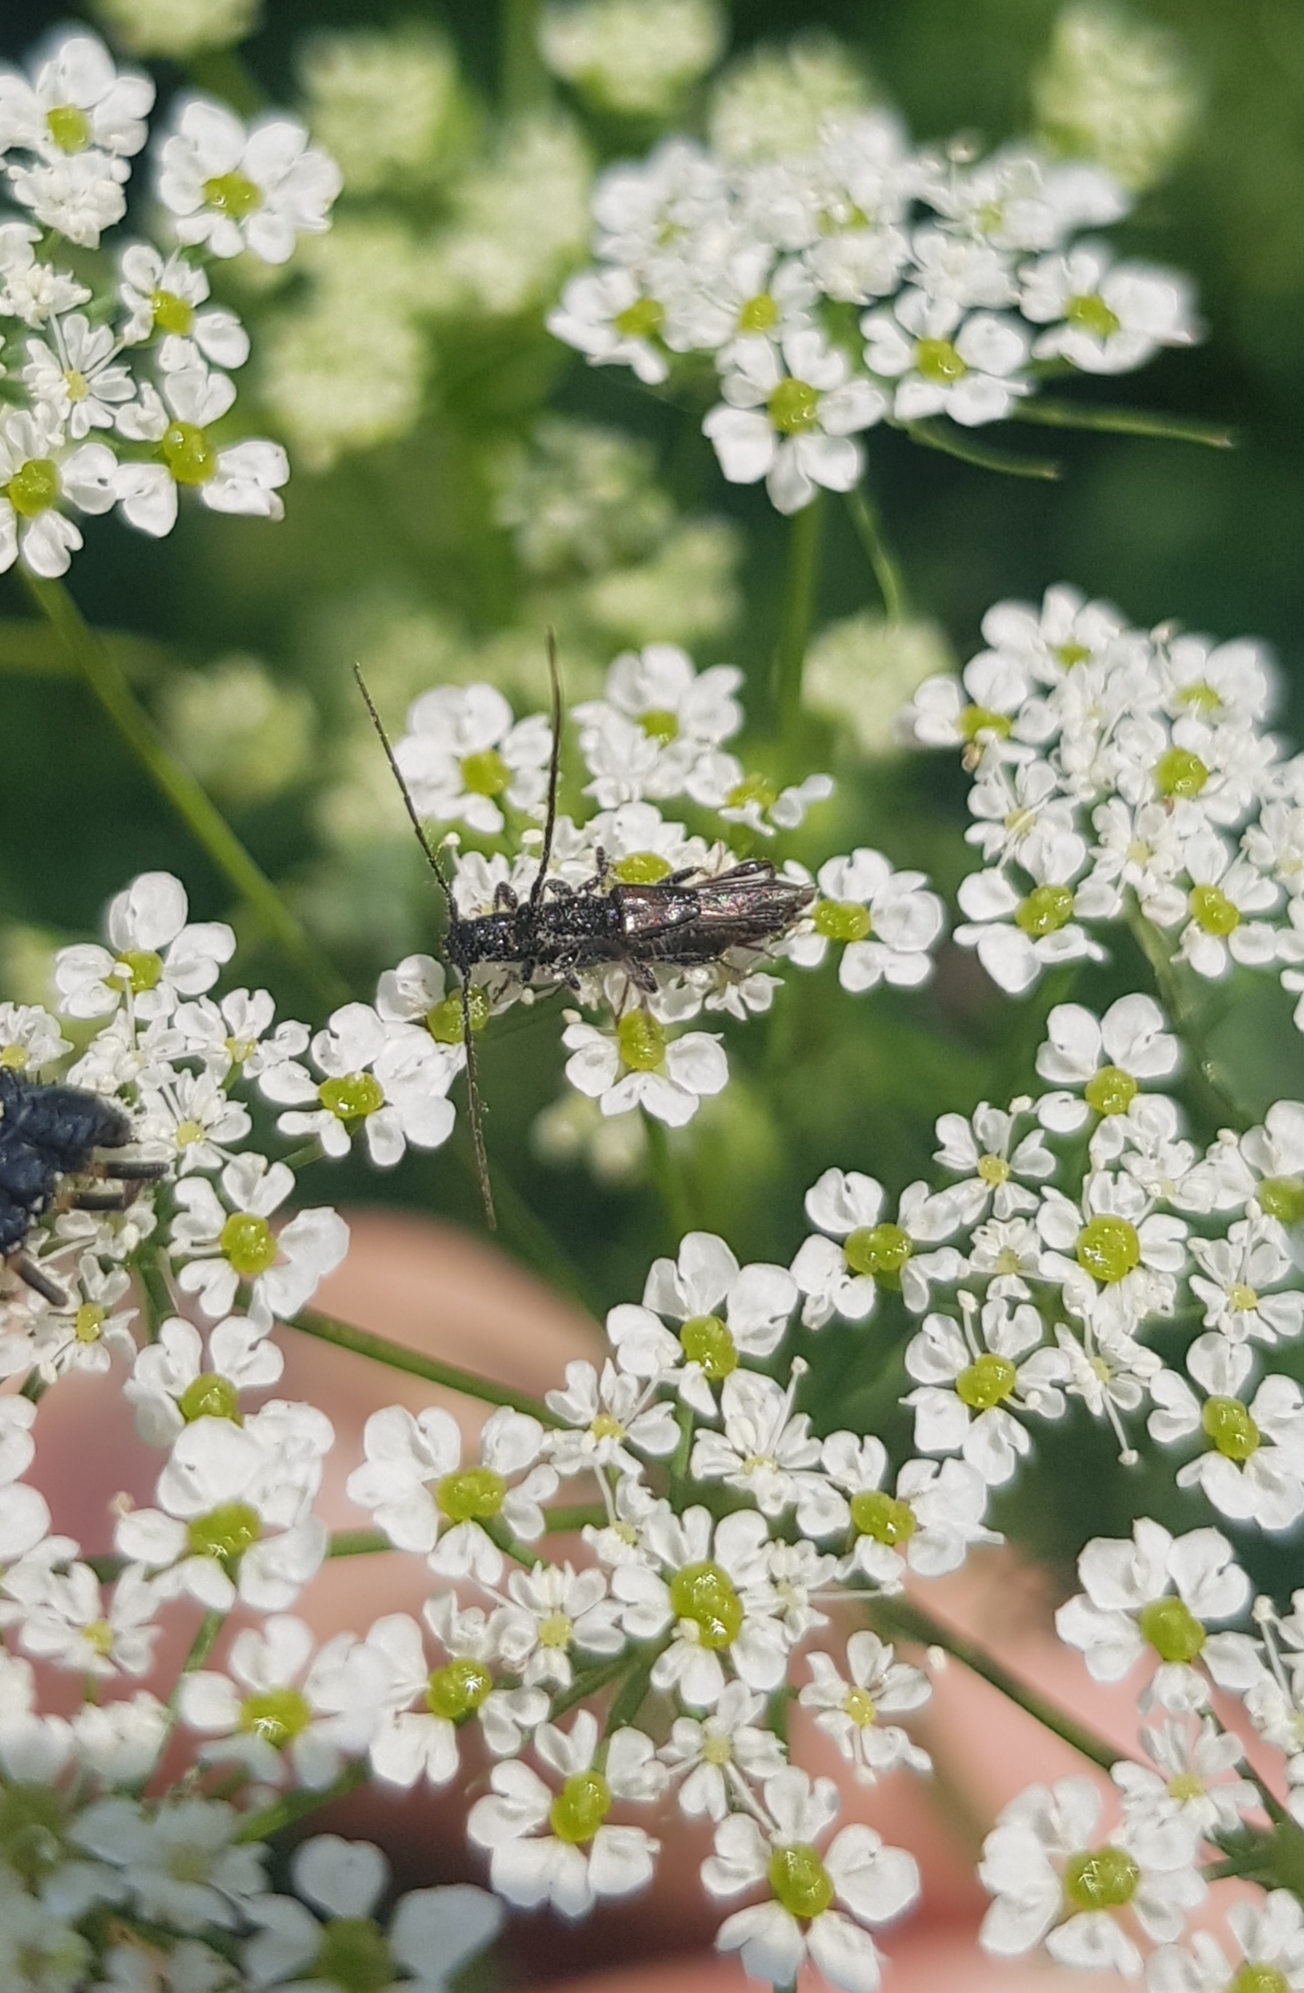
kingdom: Animalia
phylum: Arthropoda
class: Insecta
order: Coleoptera
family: Cerambycidae
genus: Molorchus
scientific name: Molorchus umbellatarum
